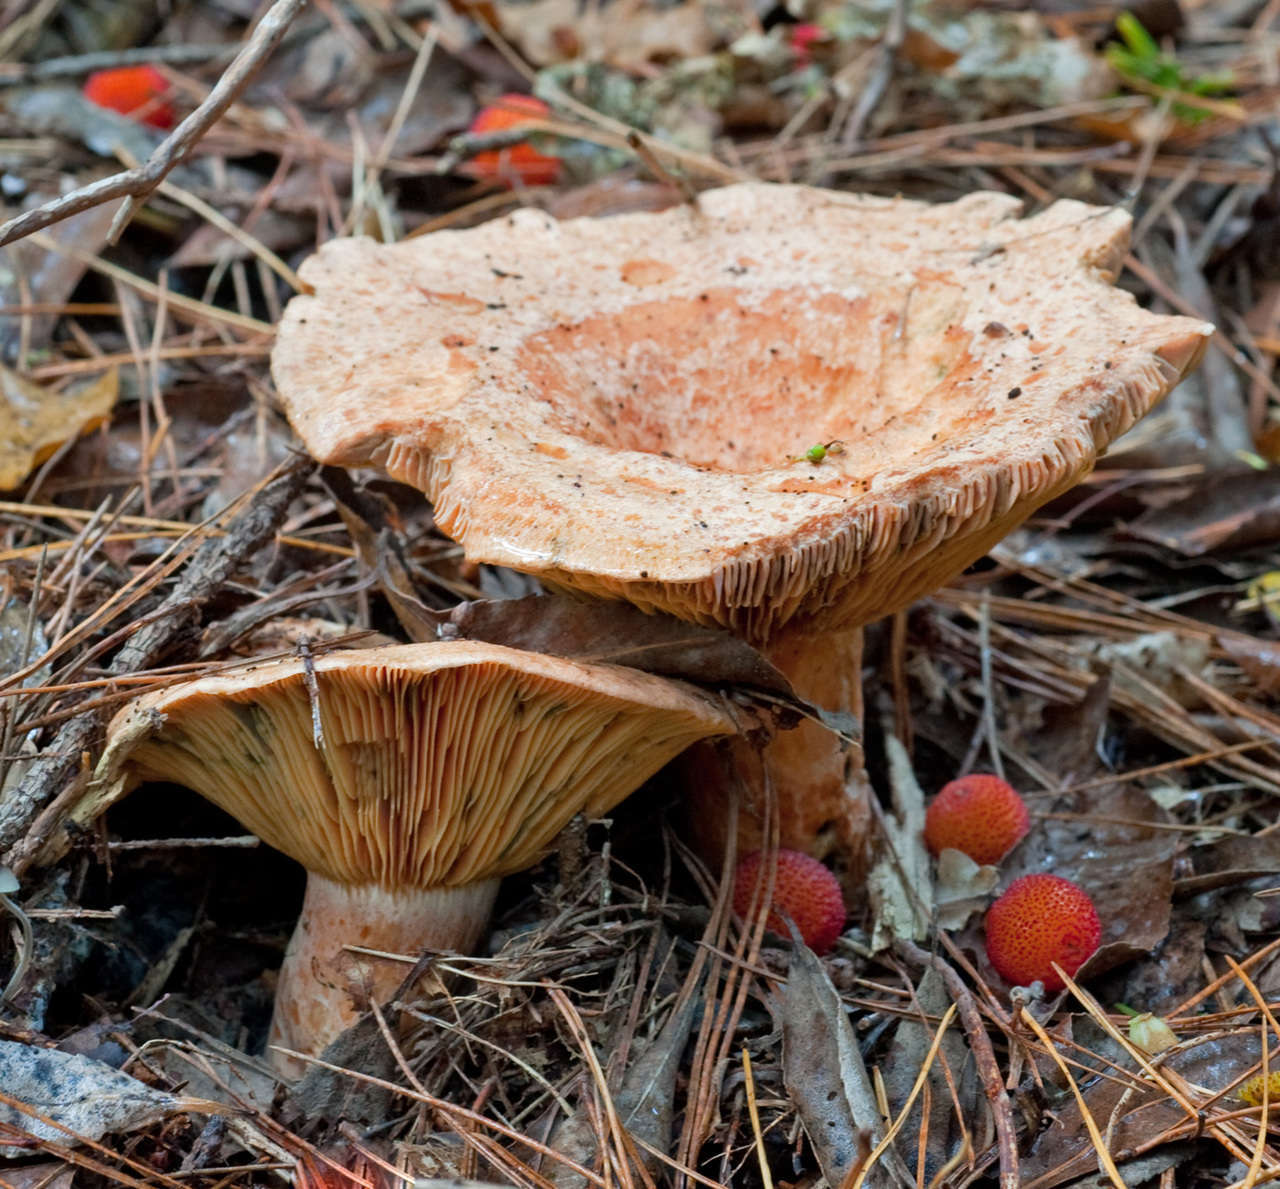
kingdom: Plantae
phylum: Tracheophyta
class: Magnoliopsida
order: Ericales
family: Ericaceae
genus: Arbutus
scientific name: Arbutus unedo
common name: Strawberry-tree
